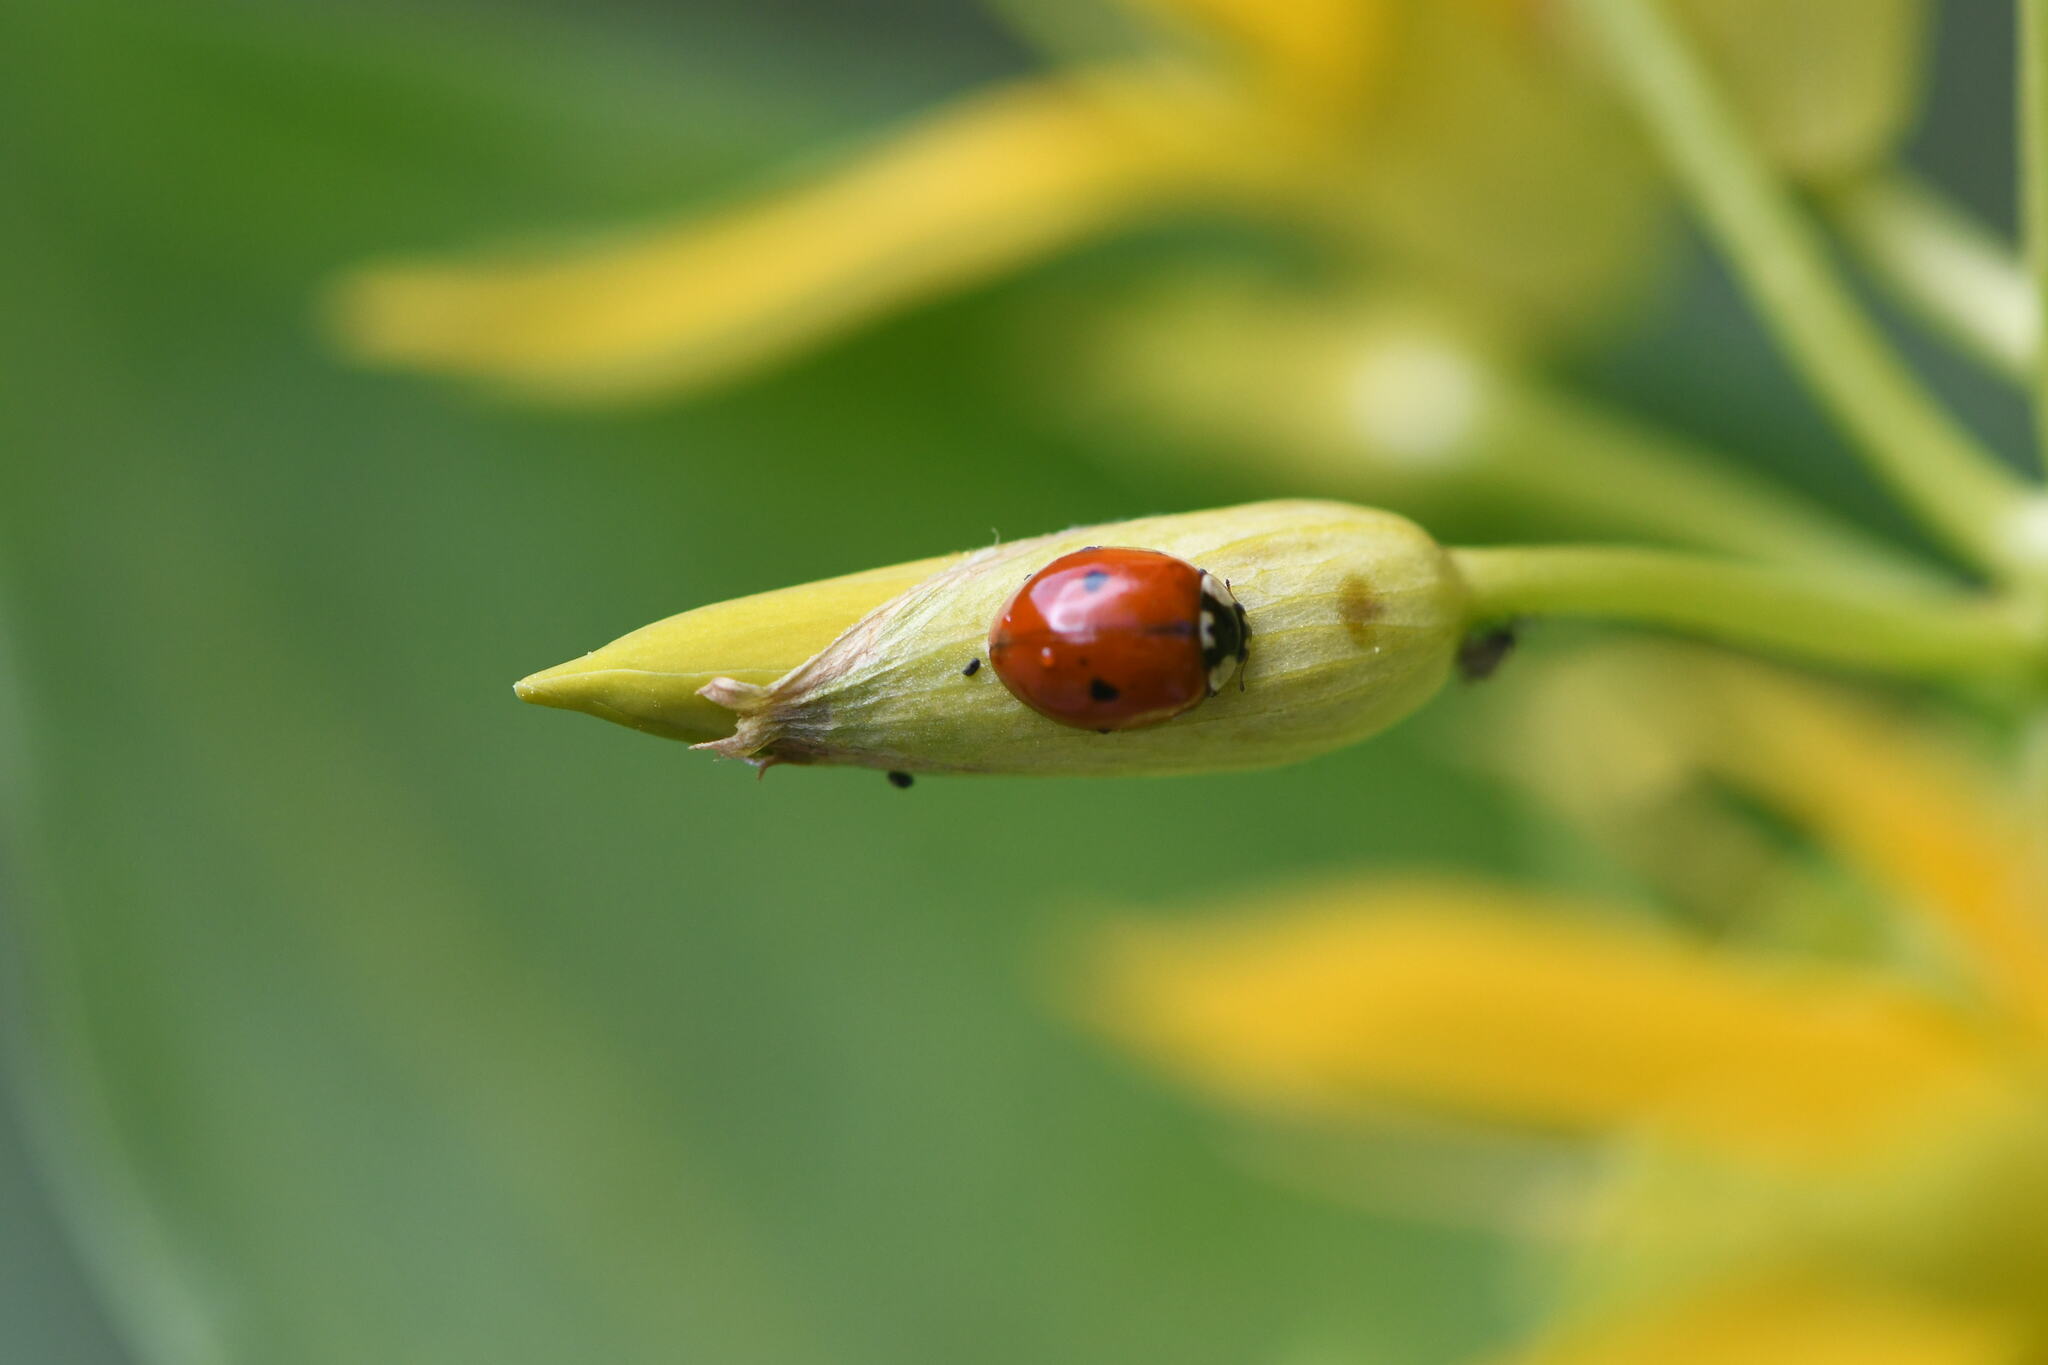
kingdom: Animalia
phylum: Arthropoda
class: Insecta
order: Coleoptera
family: Coccinellidae
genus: Adalia
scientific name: Adalia bipunctata
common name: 2-spot ladybird
